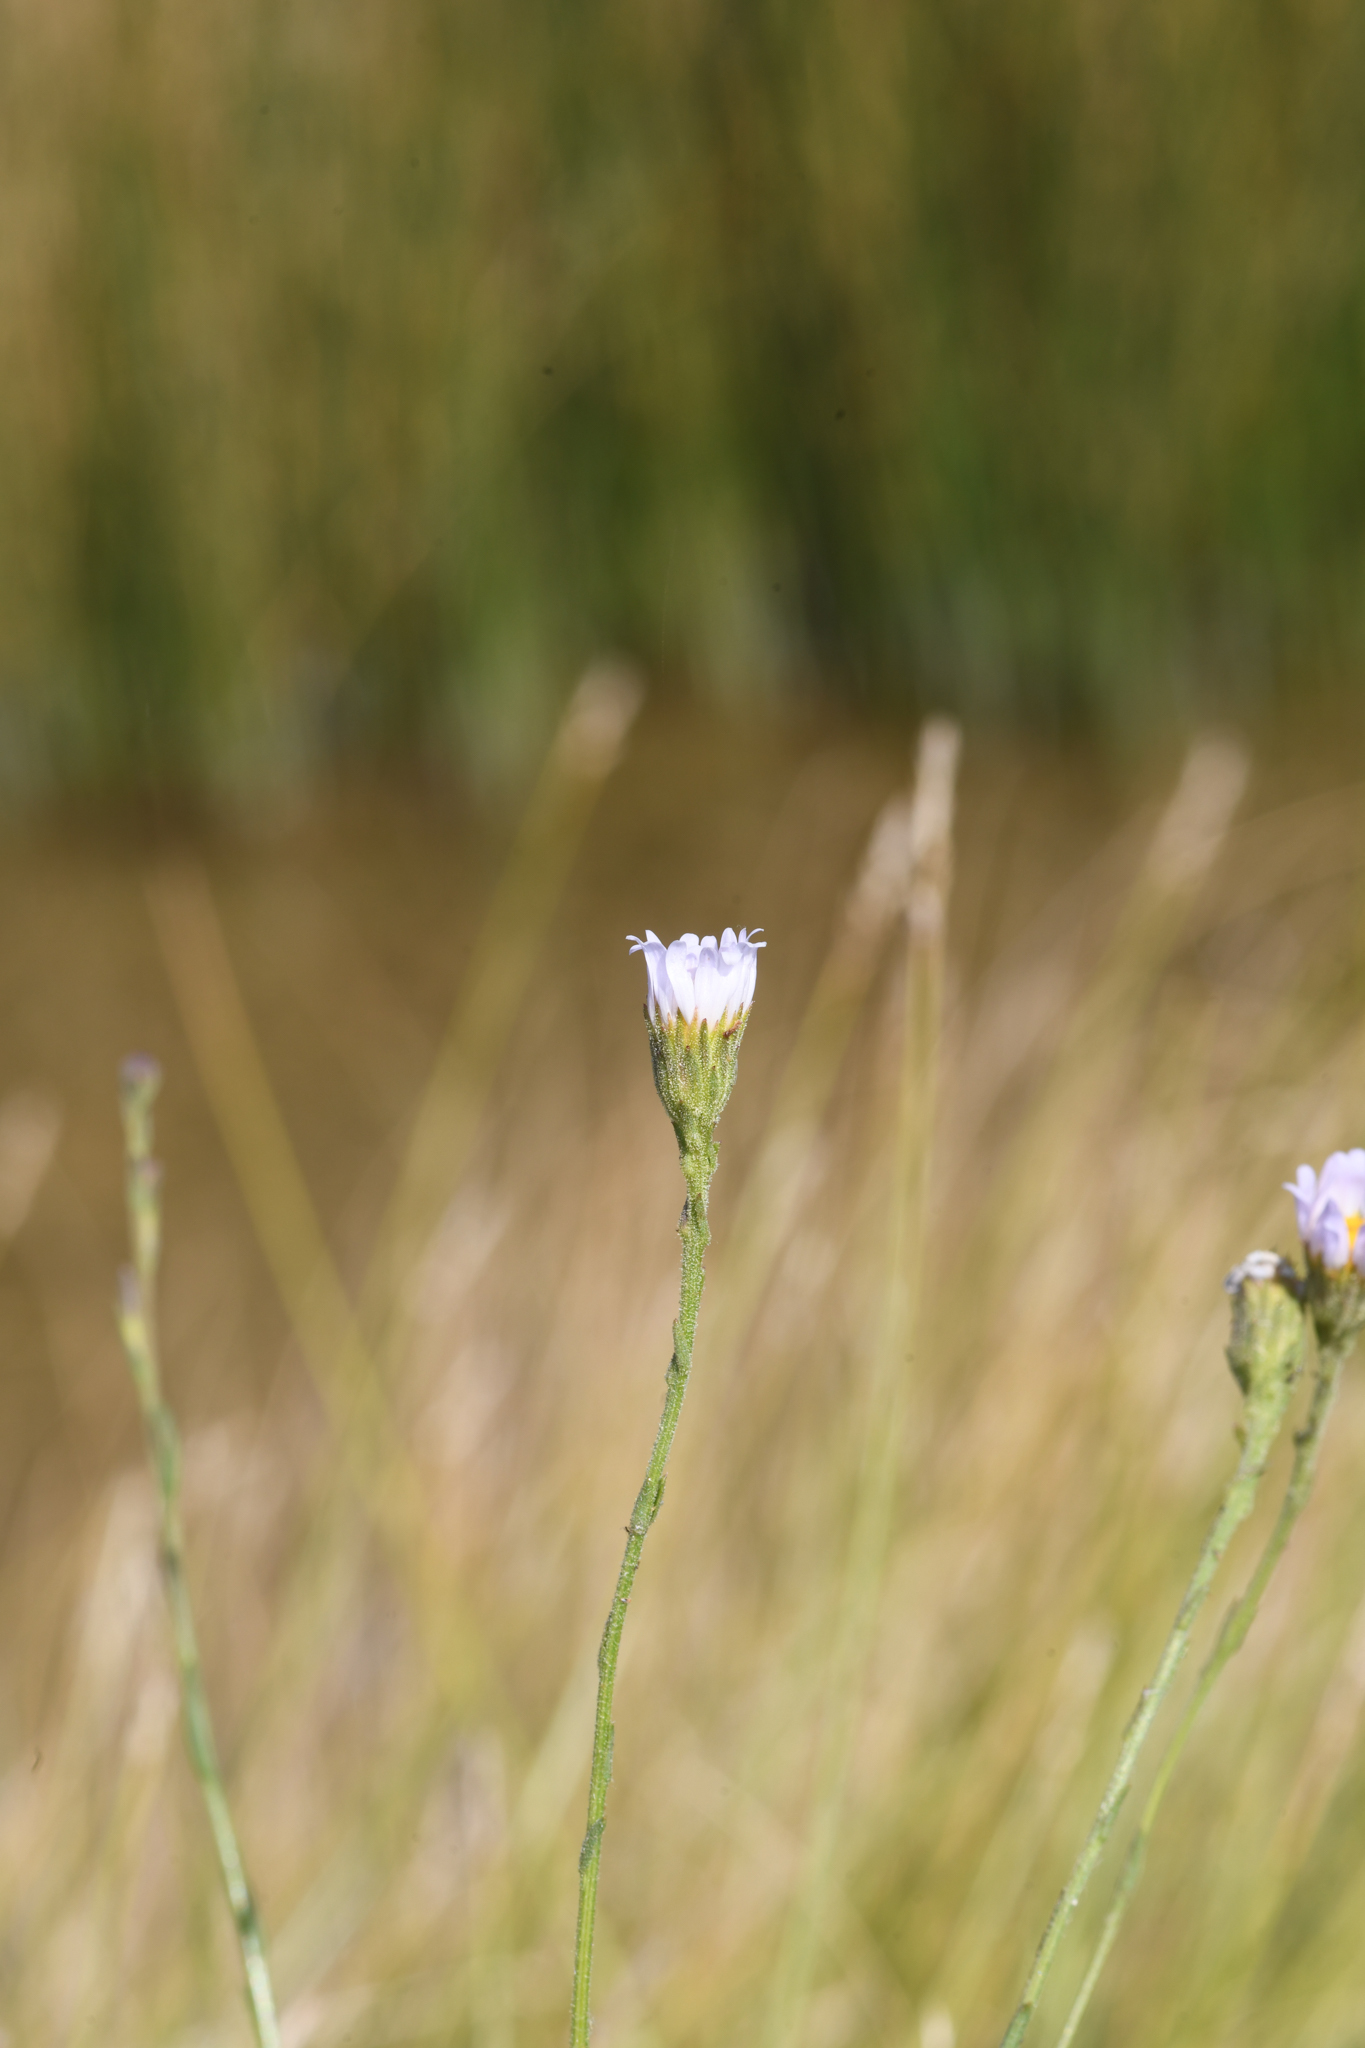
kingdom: Plantae
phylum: Tracheophyta
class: Magnoliopsida
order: Asterales
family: Asteraceae
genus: Almutaster
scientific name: Almutaster pauciflorus
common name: Alkaline aster
